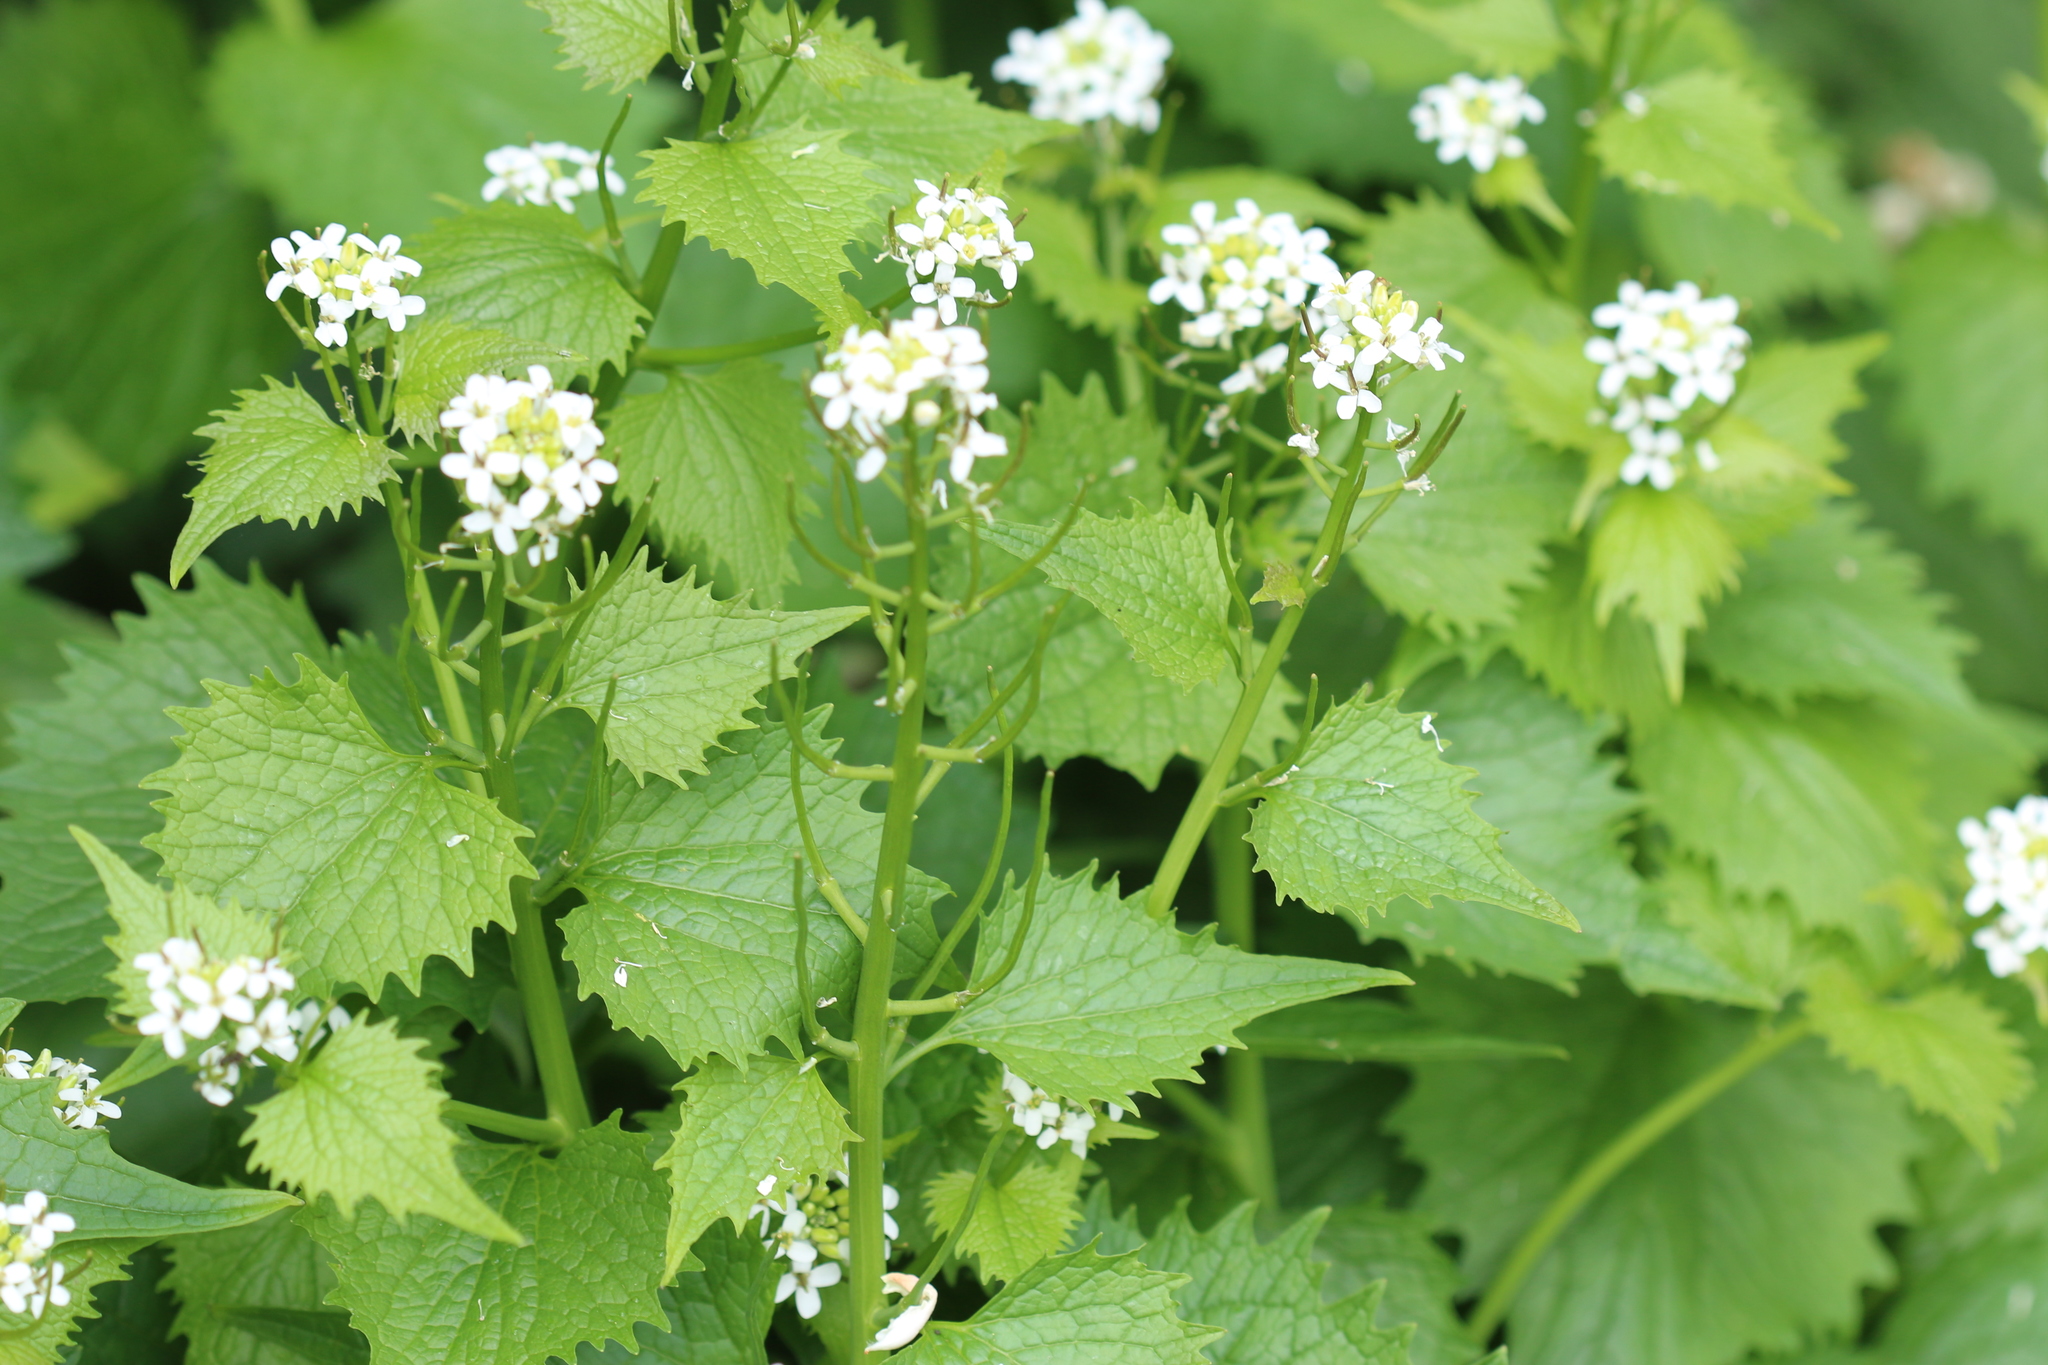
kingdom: Plantae
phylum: Tracheophyta
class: Magnoliopsida
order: Brassicales
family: Brassicaceae
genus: Alliaria
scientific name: Alliaria petiolata
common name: Garlic mustard
